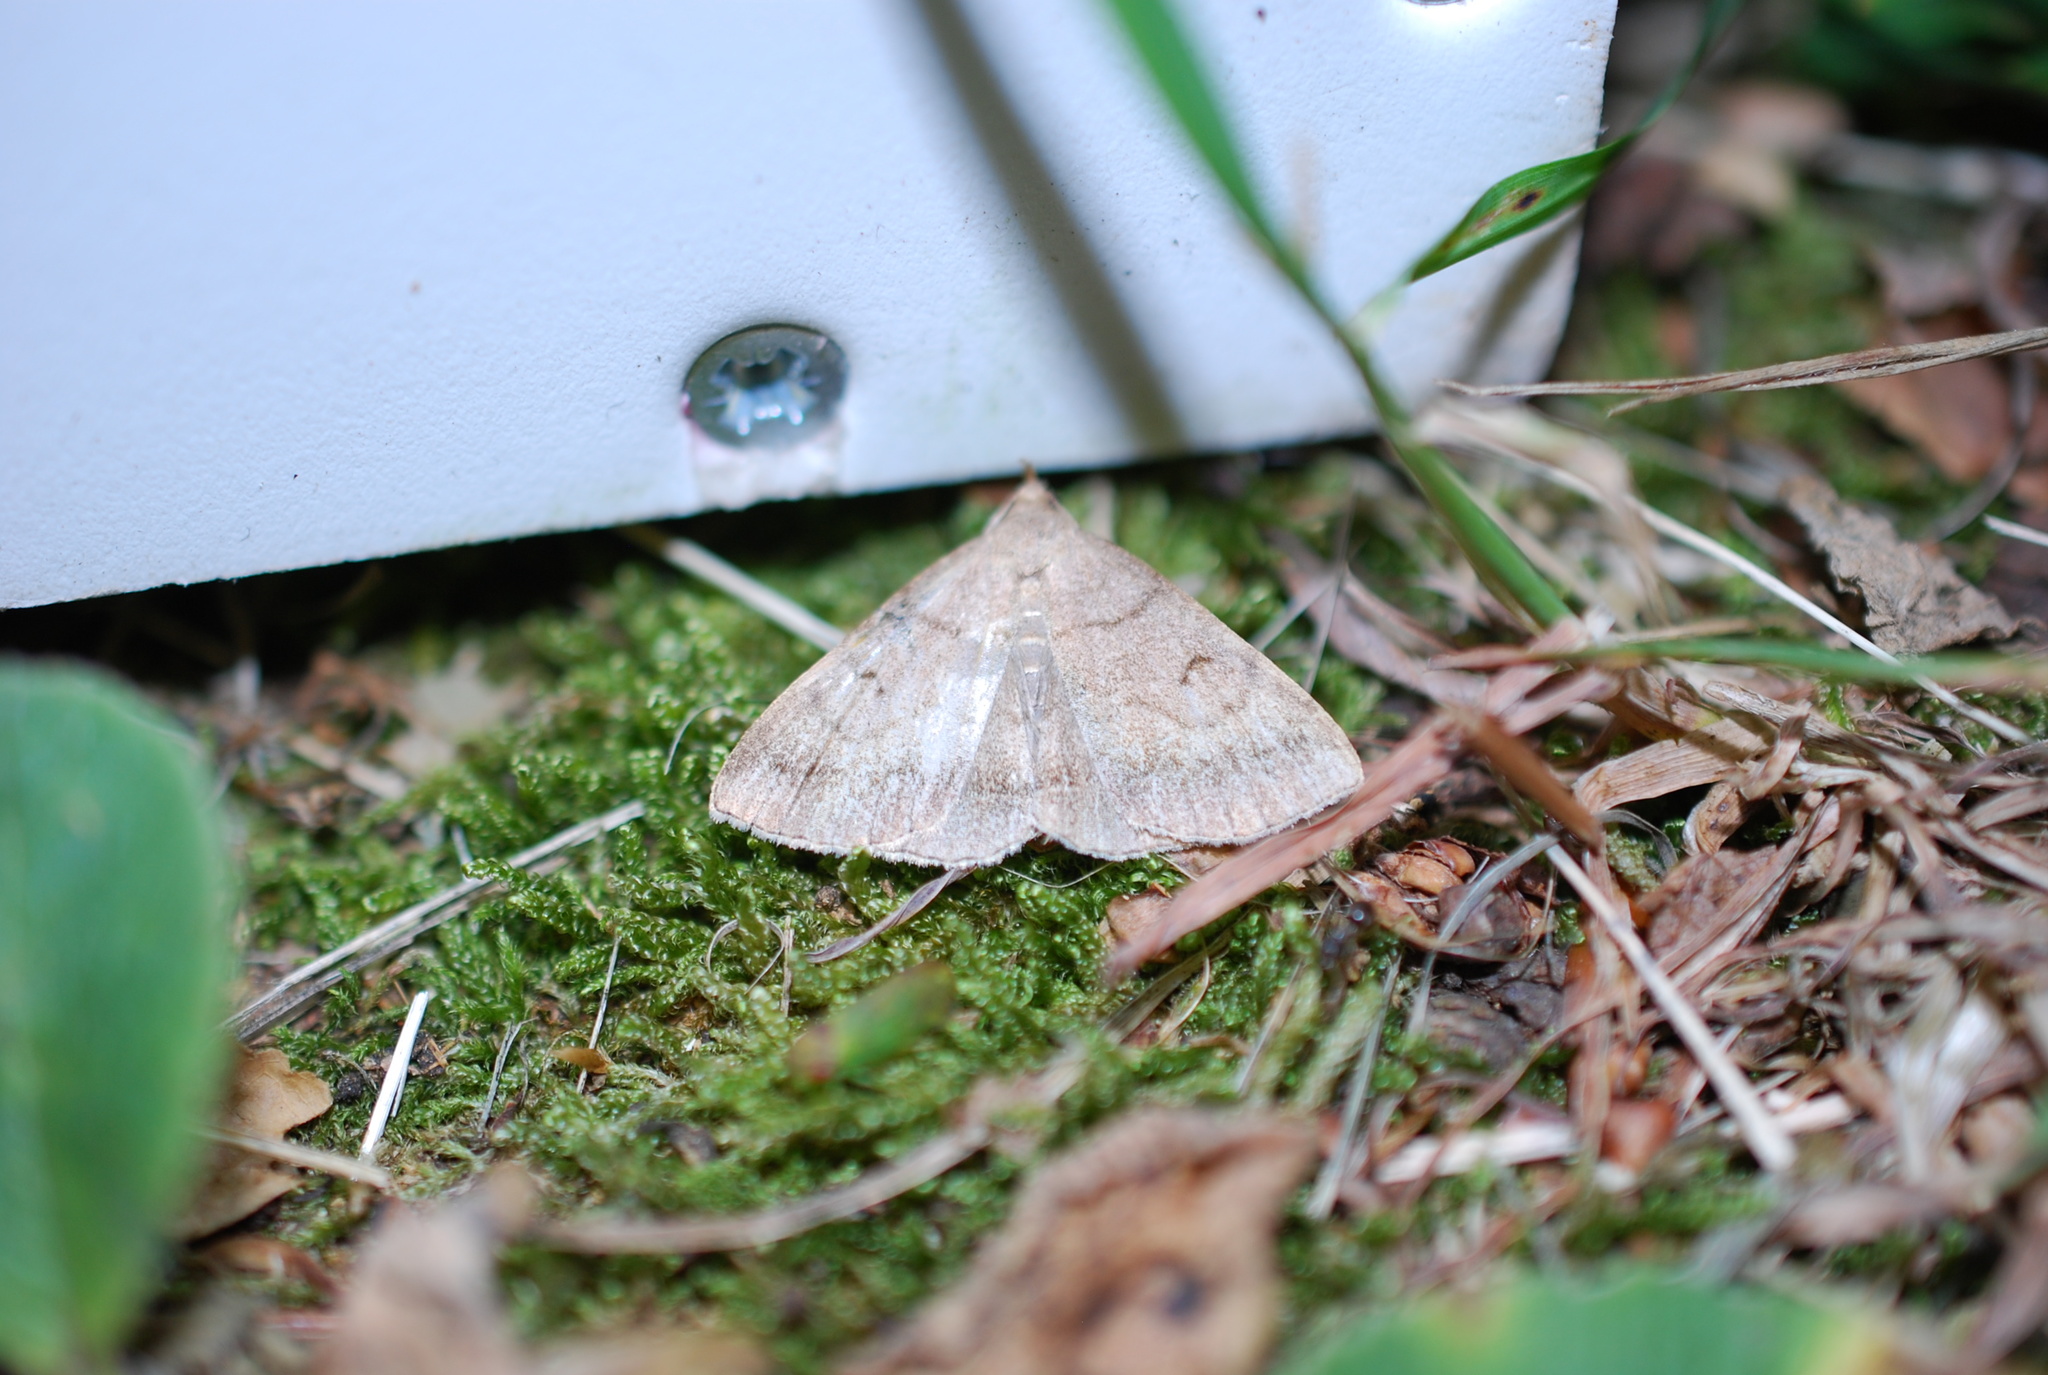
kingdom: Animalia
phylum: Arthropoda
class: Insecta
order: Lepidoptera
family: Erebidae
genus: Zanclognatha
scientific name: Zanclognatha lunalis
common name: Jubilee fan-foot
